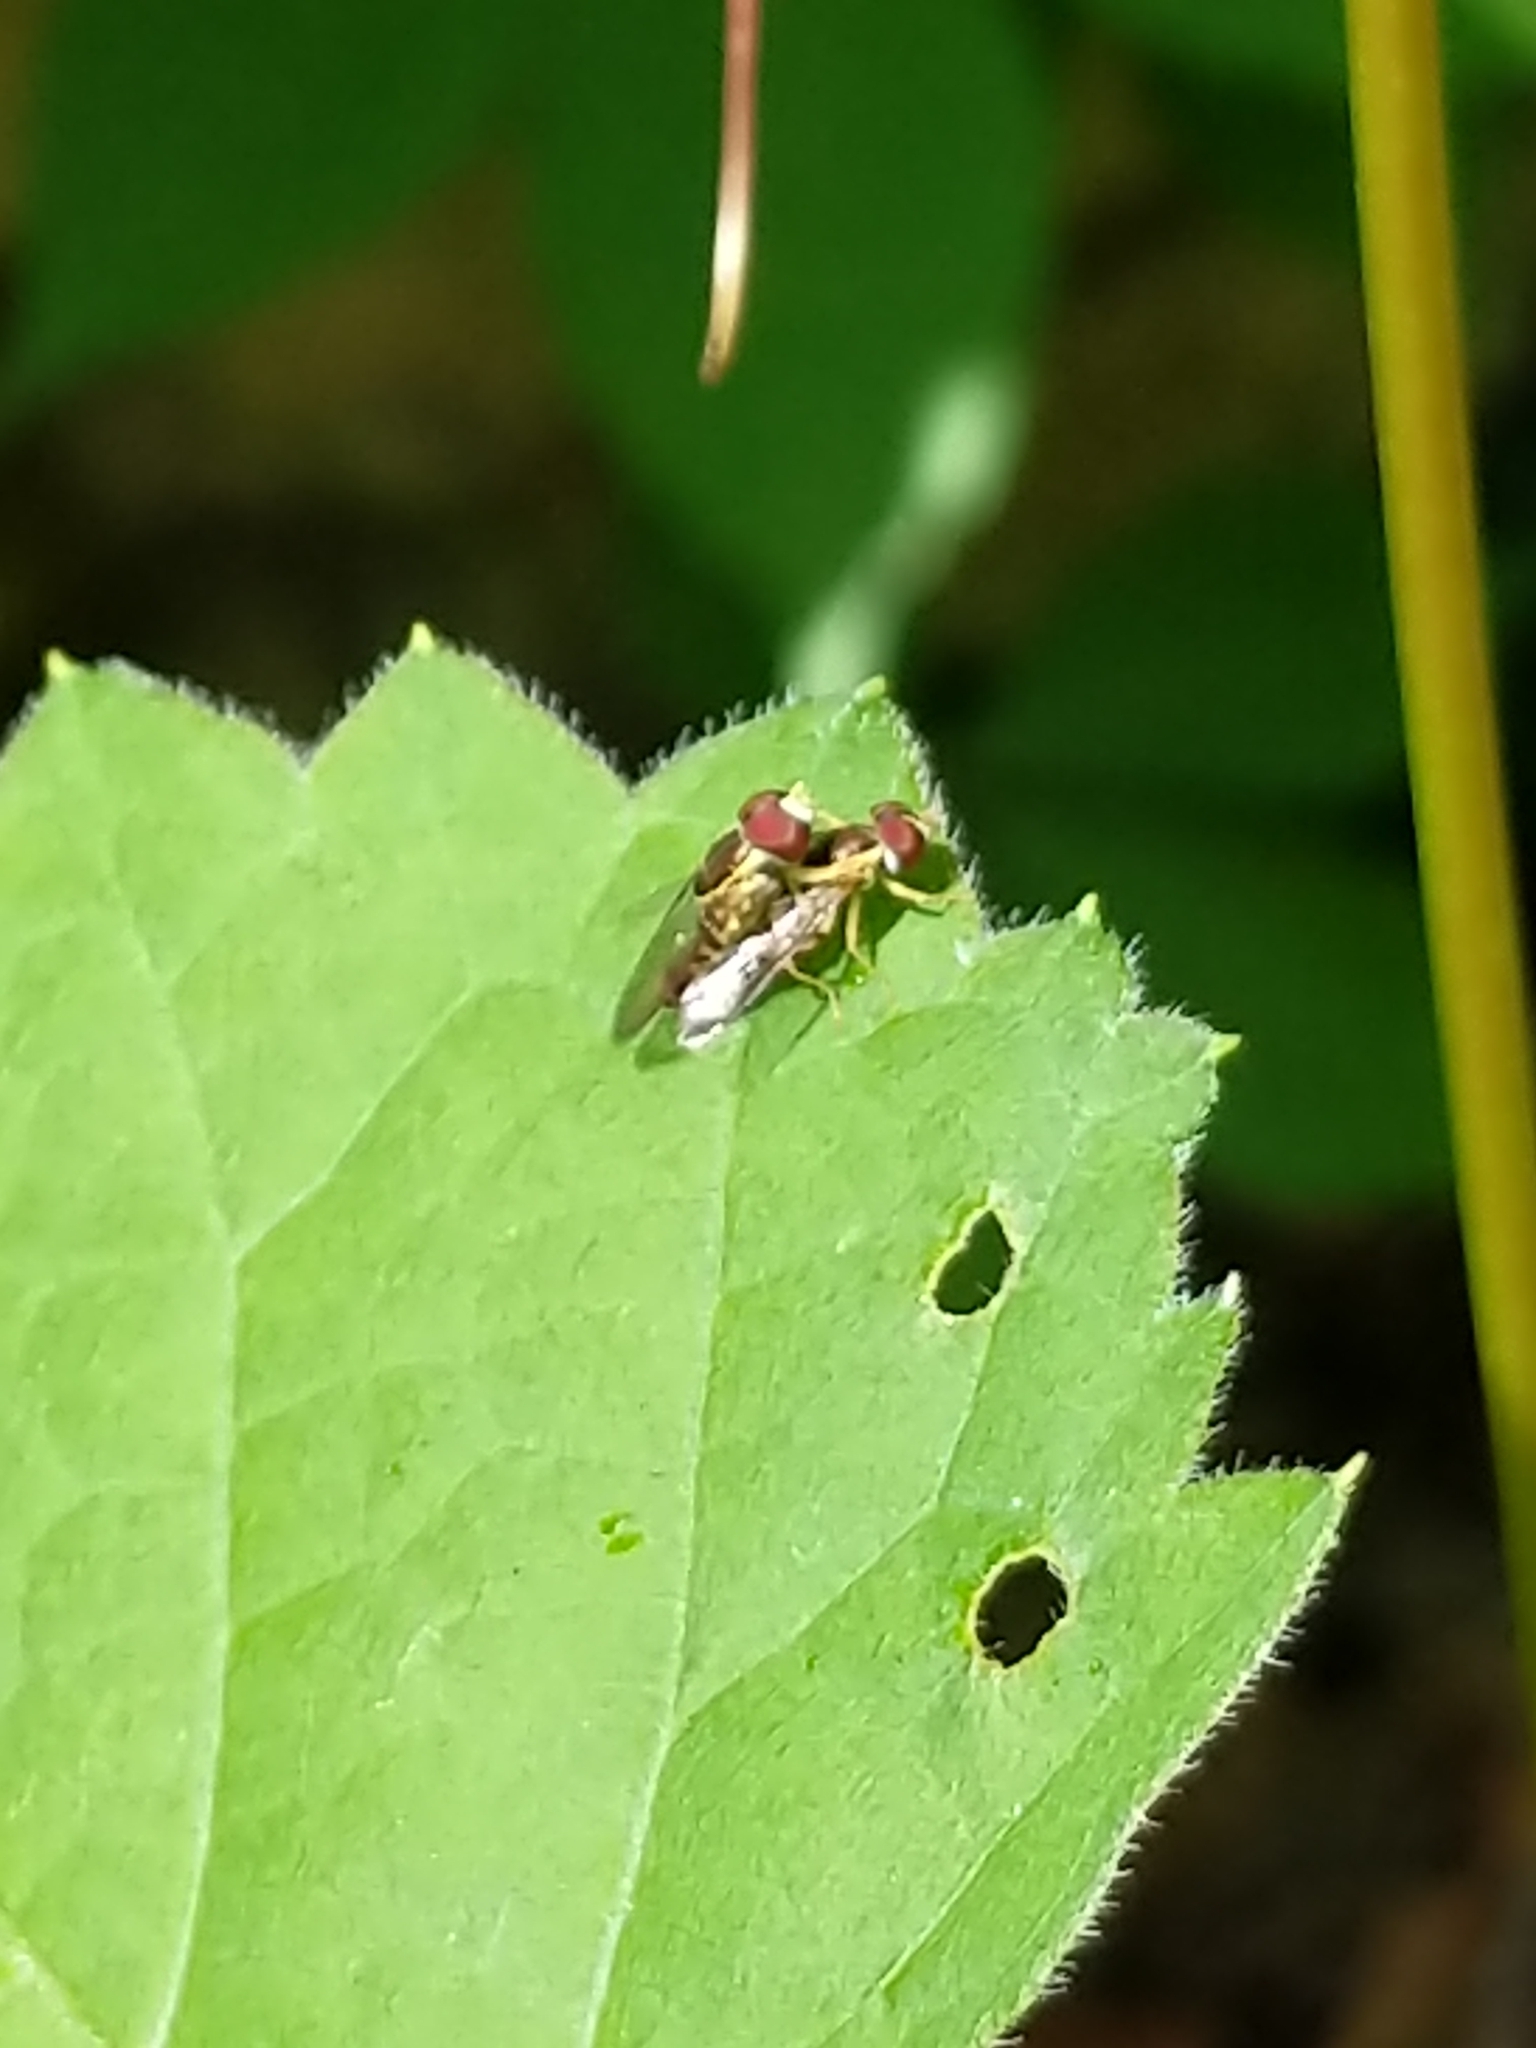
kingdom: Animalia
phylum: Arthropoda
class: Insecta
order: Diptera
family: Syrphidae
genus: Toxomerus
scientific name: Toxomerus geminatus
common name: Eastern calligrapher
